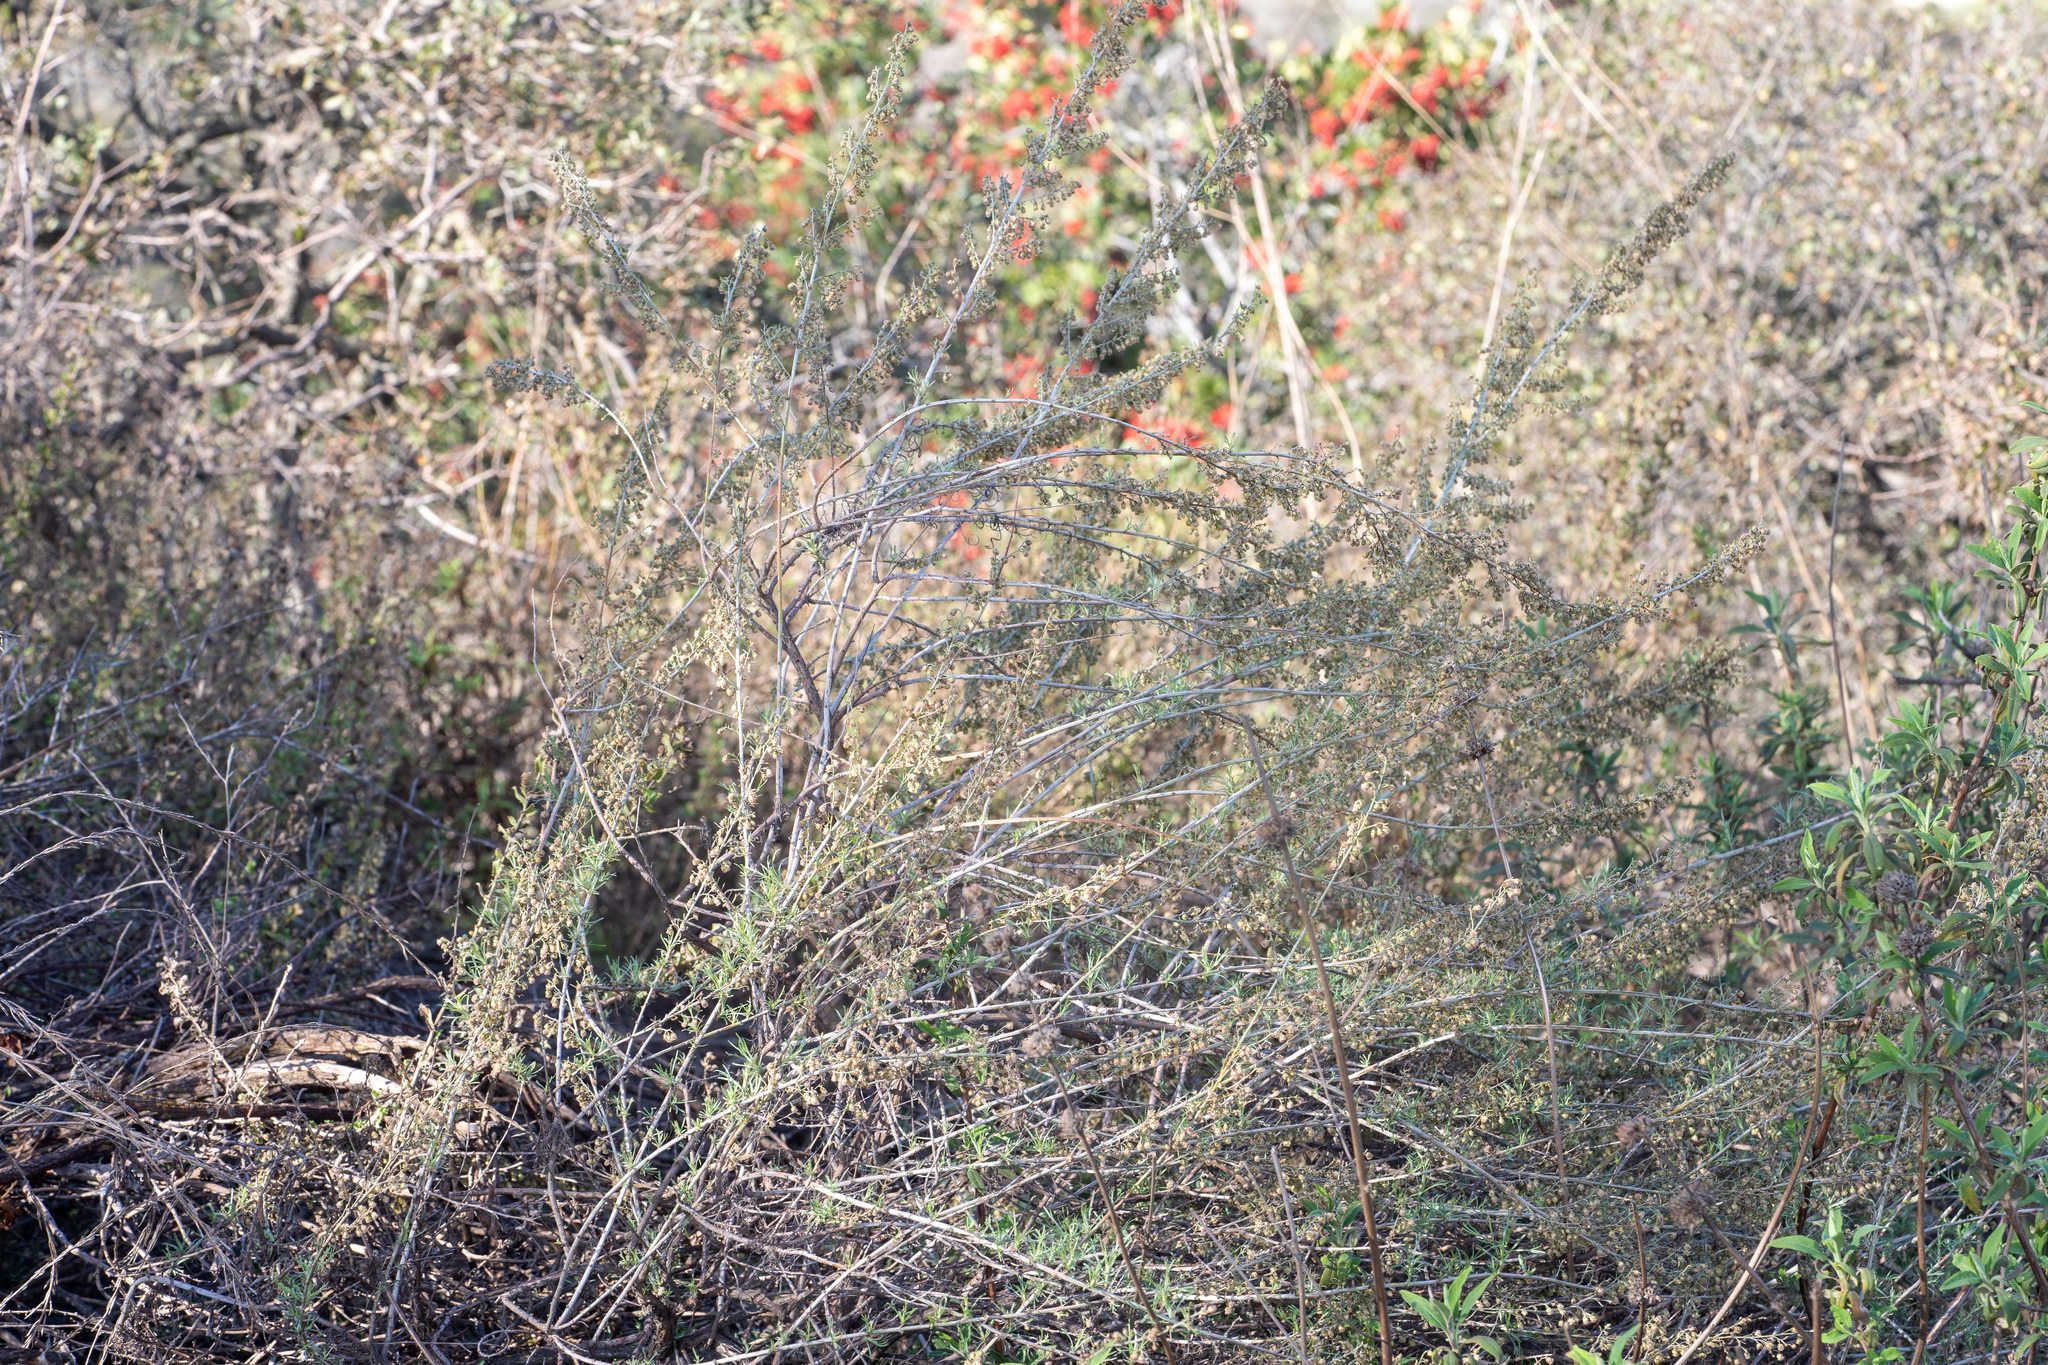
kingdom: Plantae
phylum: Tracheophyta
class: Magnoliopsida
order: Asterales
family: Asteraceae
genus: Artemisia
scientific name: Artemisia californica
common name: California sagebrush
